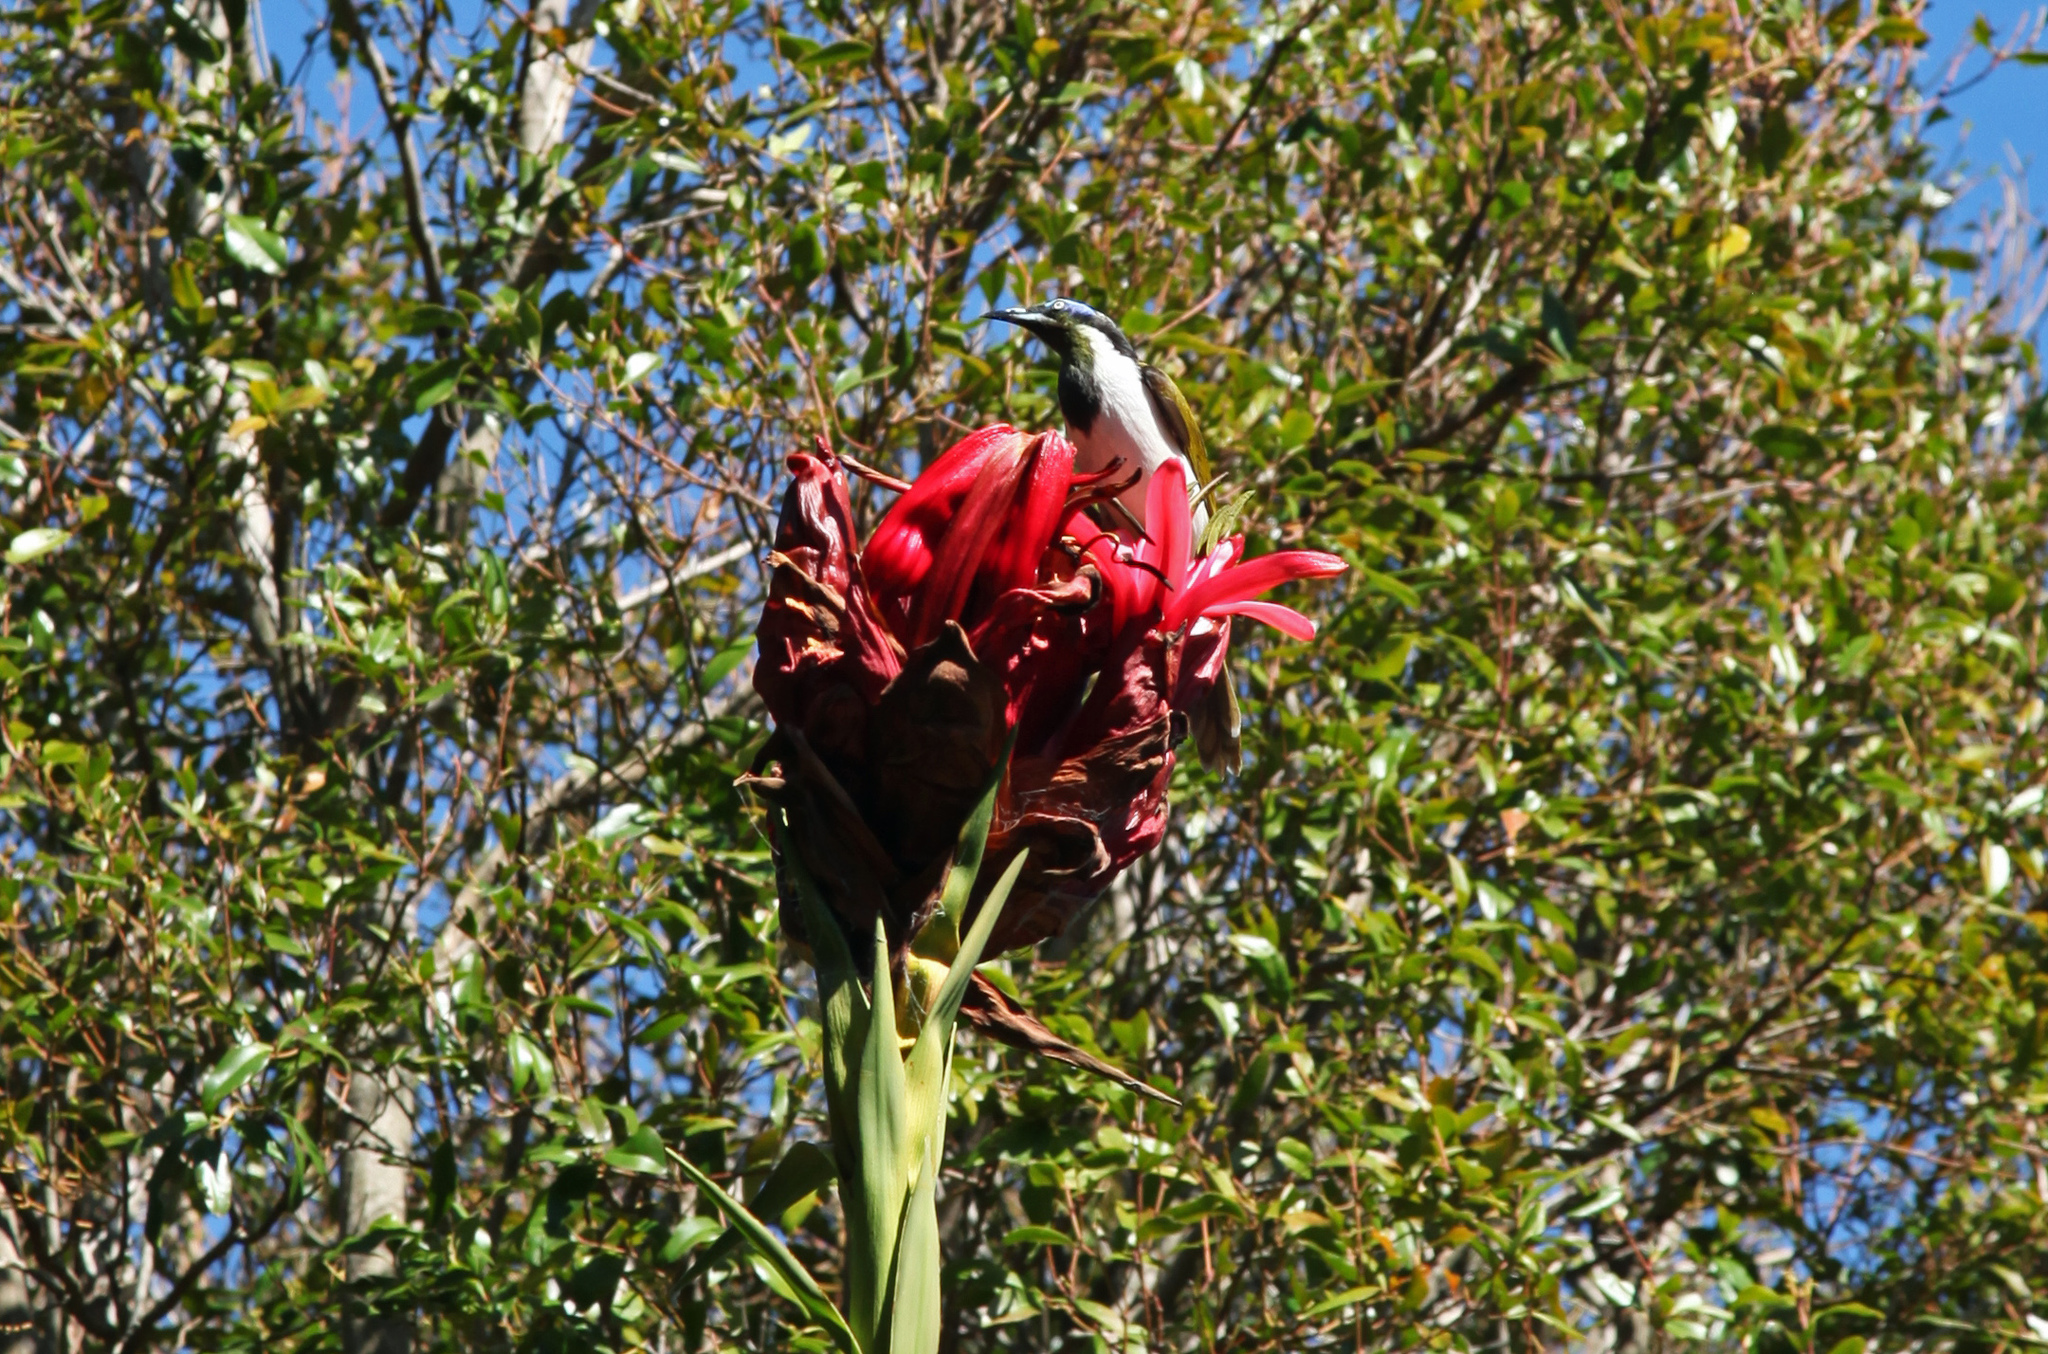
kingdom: Animalia
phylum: Chordata
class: Aves
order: Passeriformes
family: Meliphagidae
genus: Entomyzon
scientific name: Entomyzon cyanotis
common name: Blue-faced honeyeater
